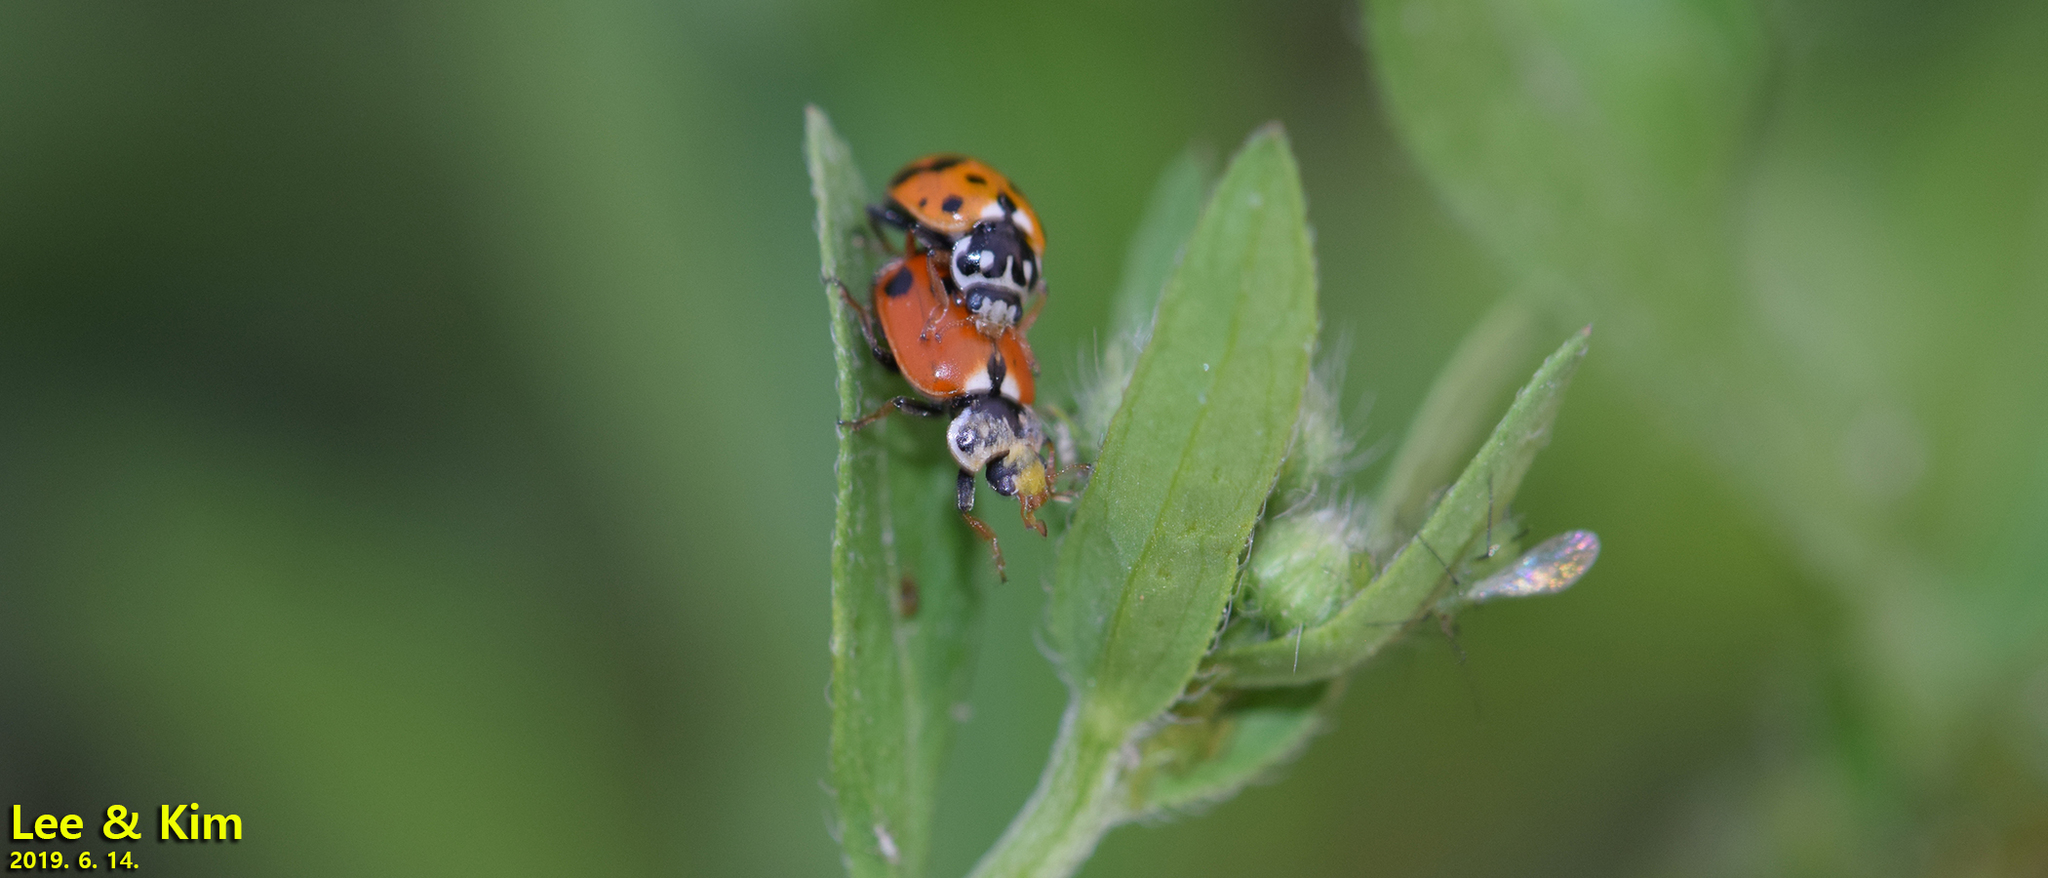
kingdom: Animalia
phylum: Arthropoda
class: Insecta
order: Coleoptera
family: Coccinellidae
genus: Hippodamia
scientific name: Hippodamia variegata
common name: Ladybird beetle
